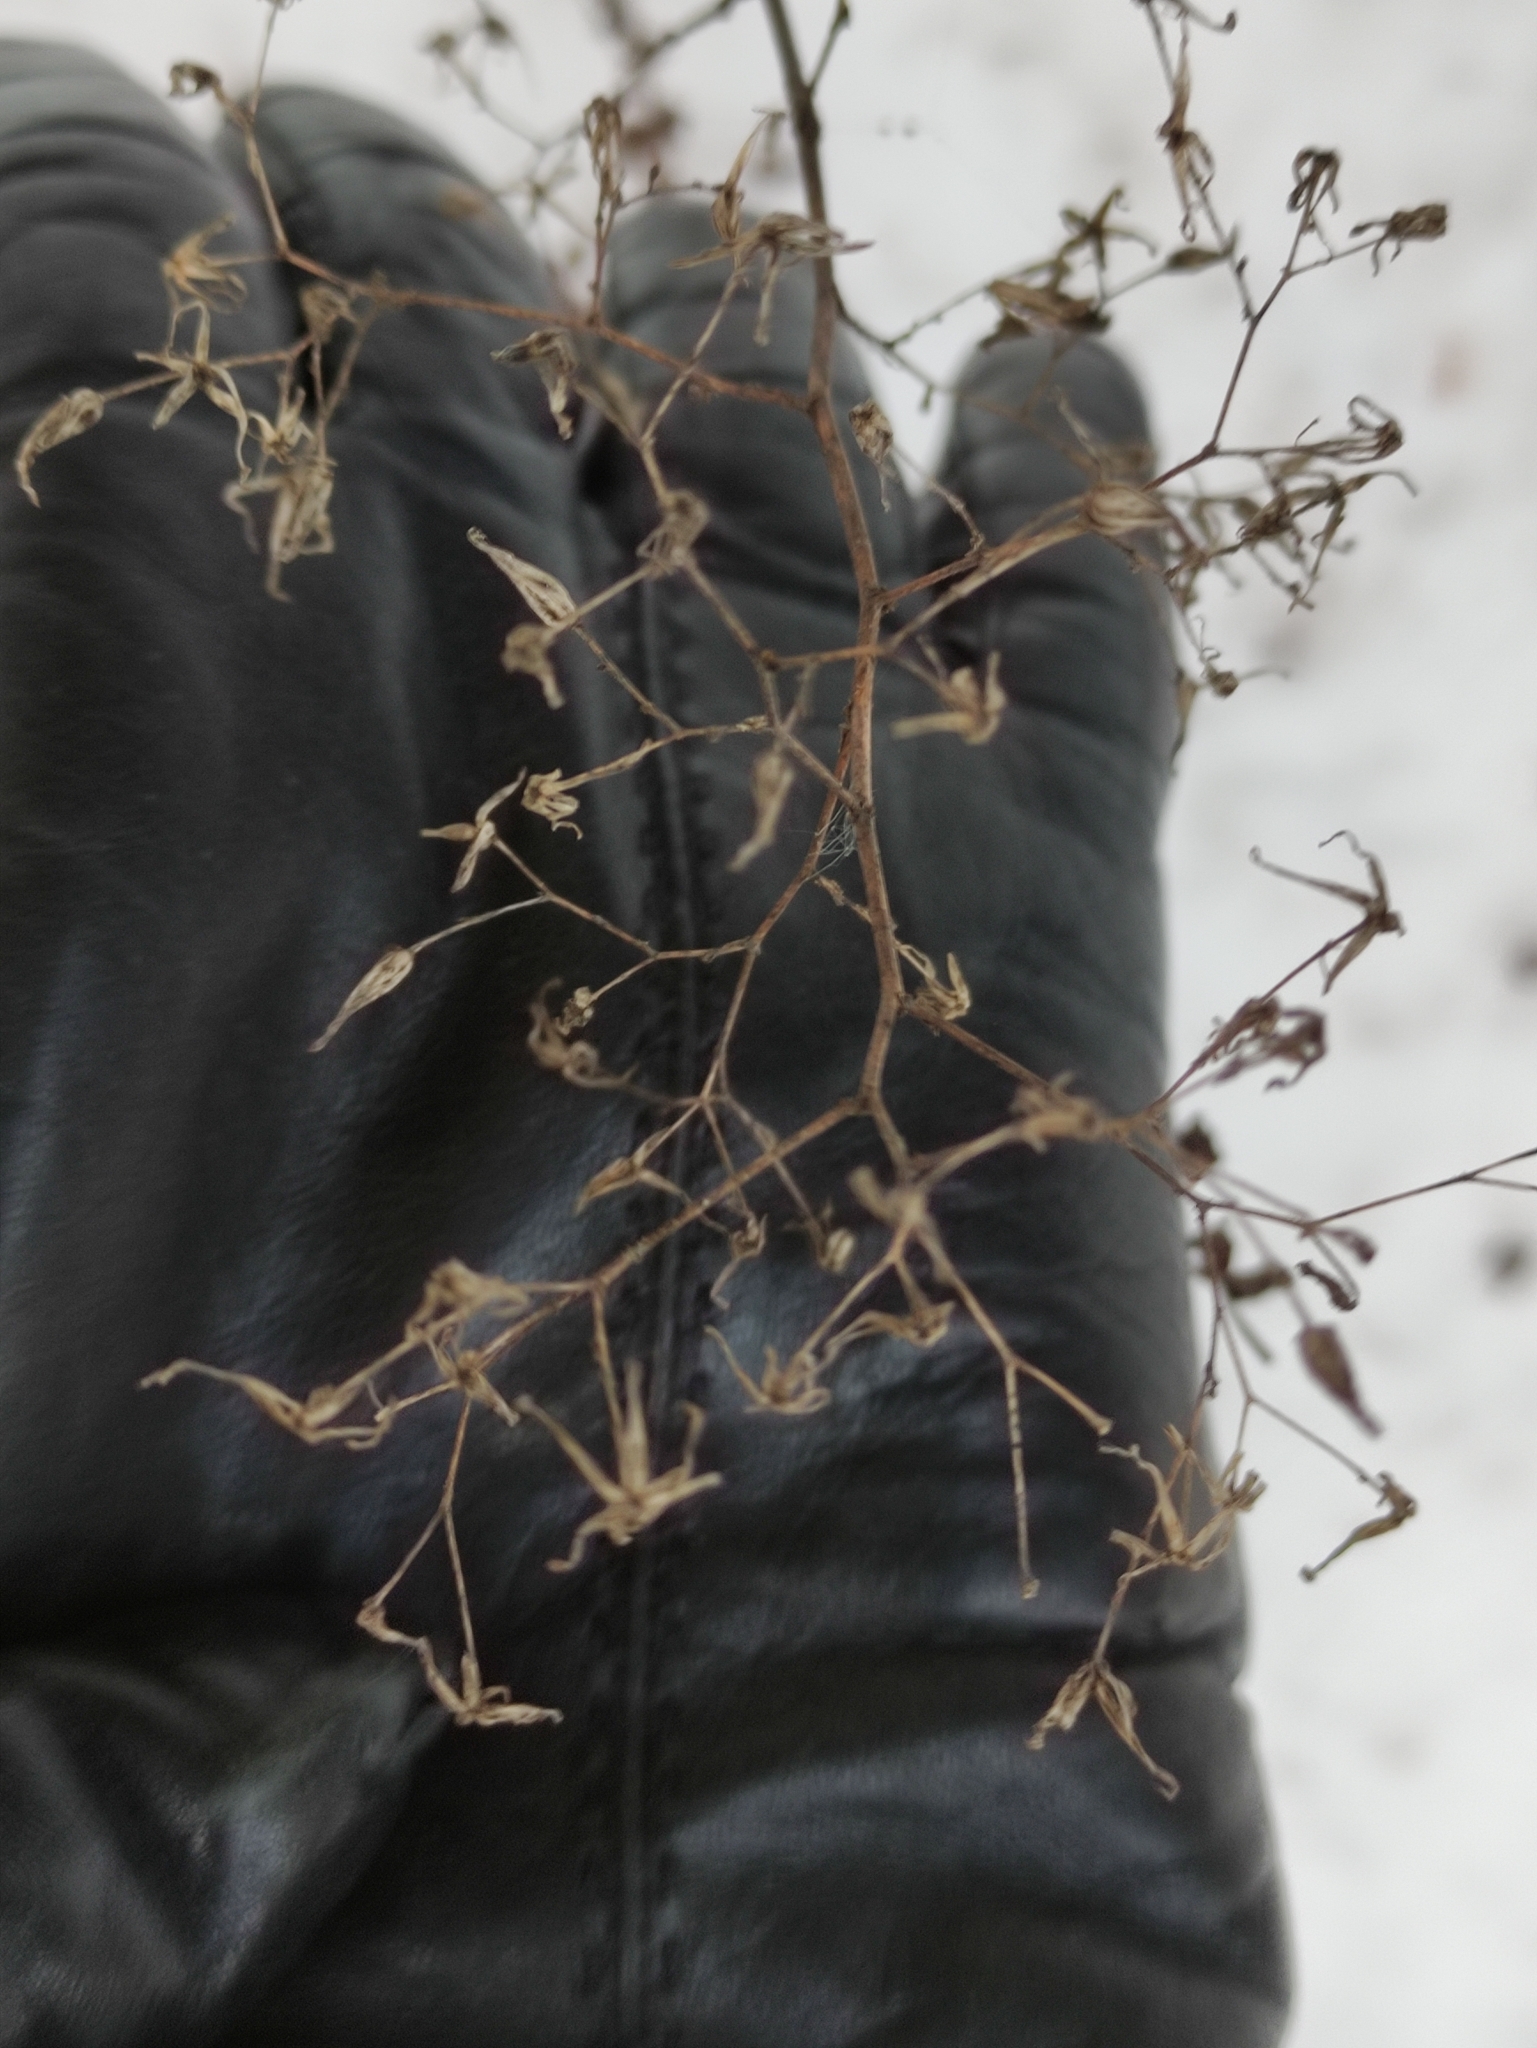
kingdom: Plantae
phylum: Tracheophyta
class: Magnoliopsida
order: Asterales
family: Asteraceae
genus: Mycelis
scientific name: Mycelis muralis
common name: Wall lettuce
